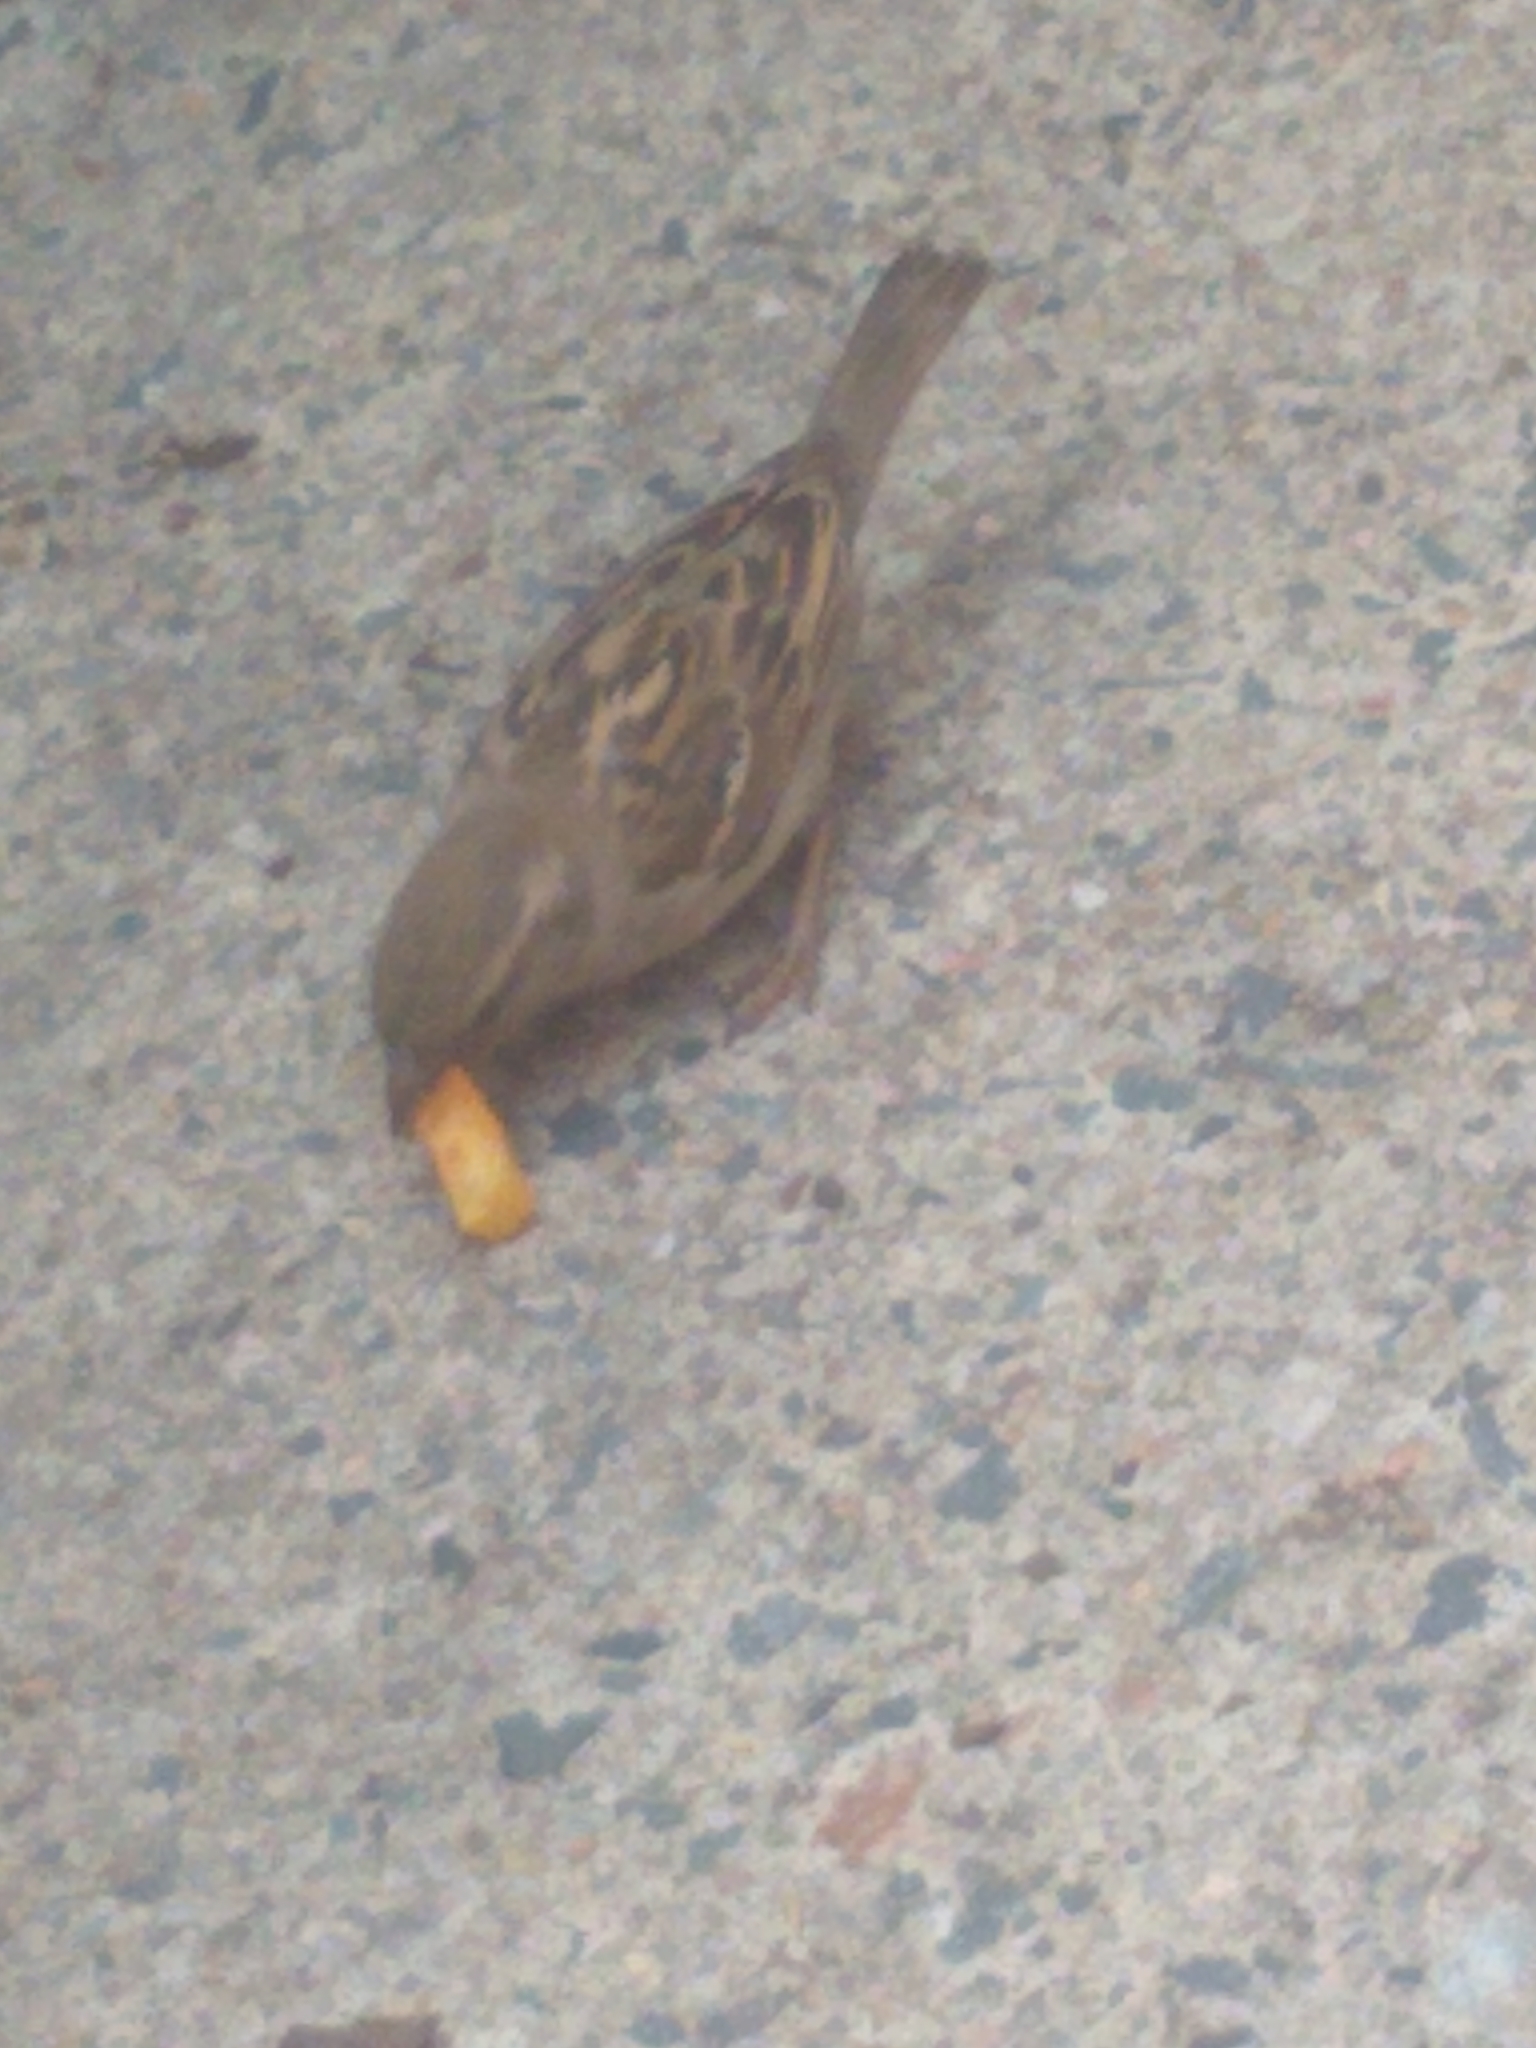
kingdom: Animalia
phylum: Chordata
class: Aves
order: Passeriformes
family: Passeridae
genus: Passer
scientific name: Passer domesticus
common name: House sparrow
